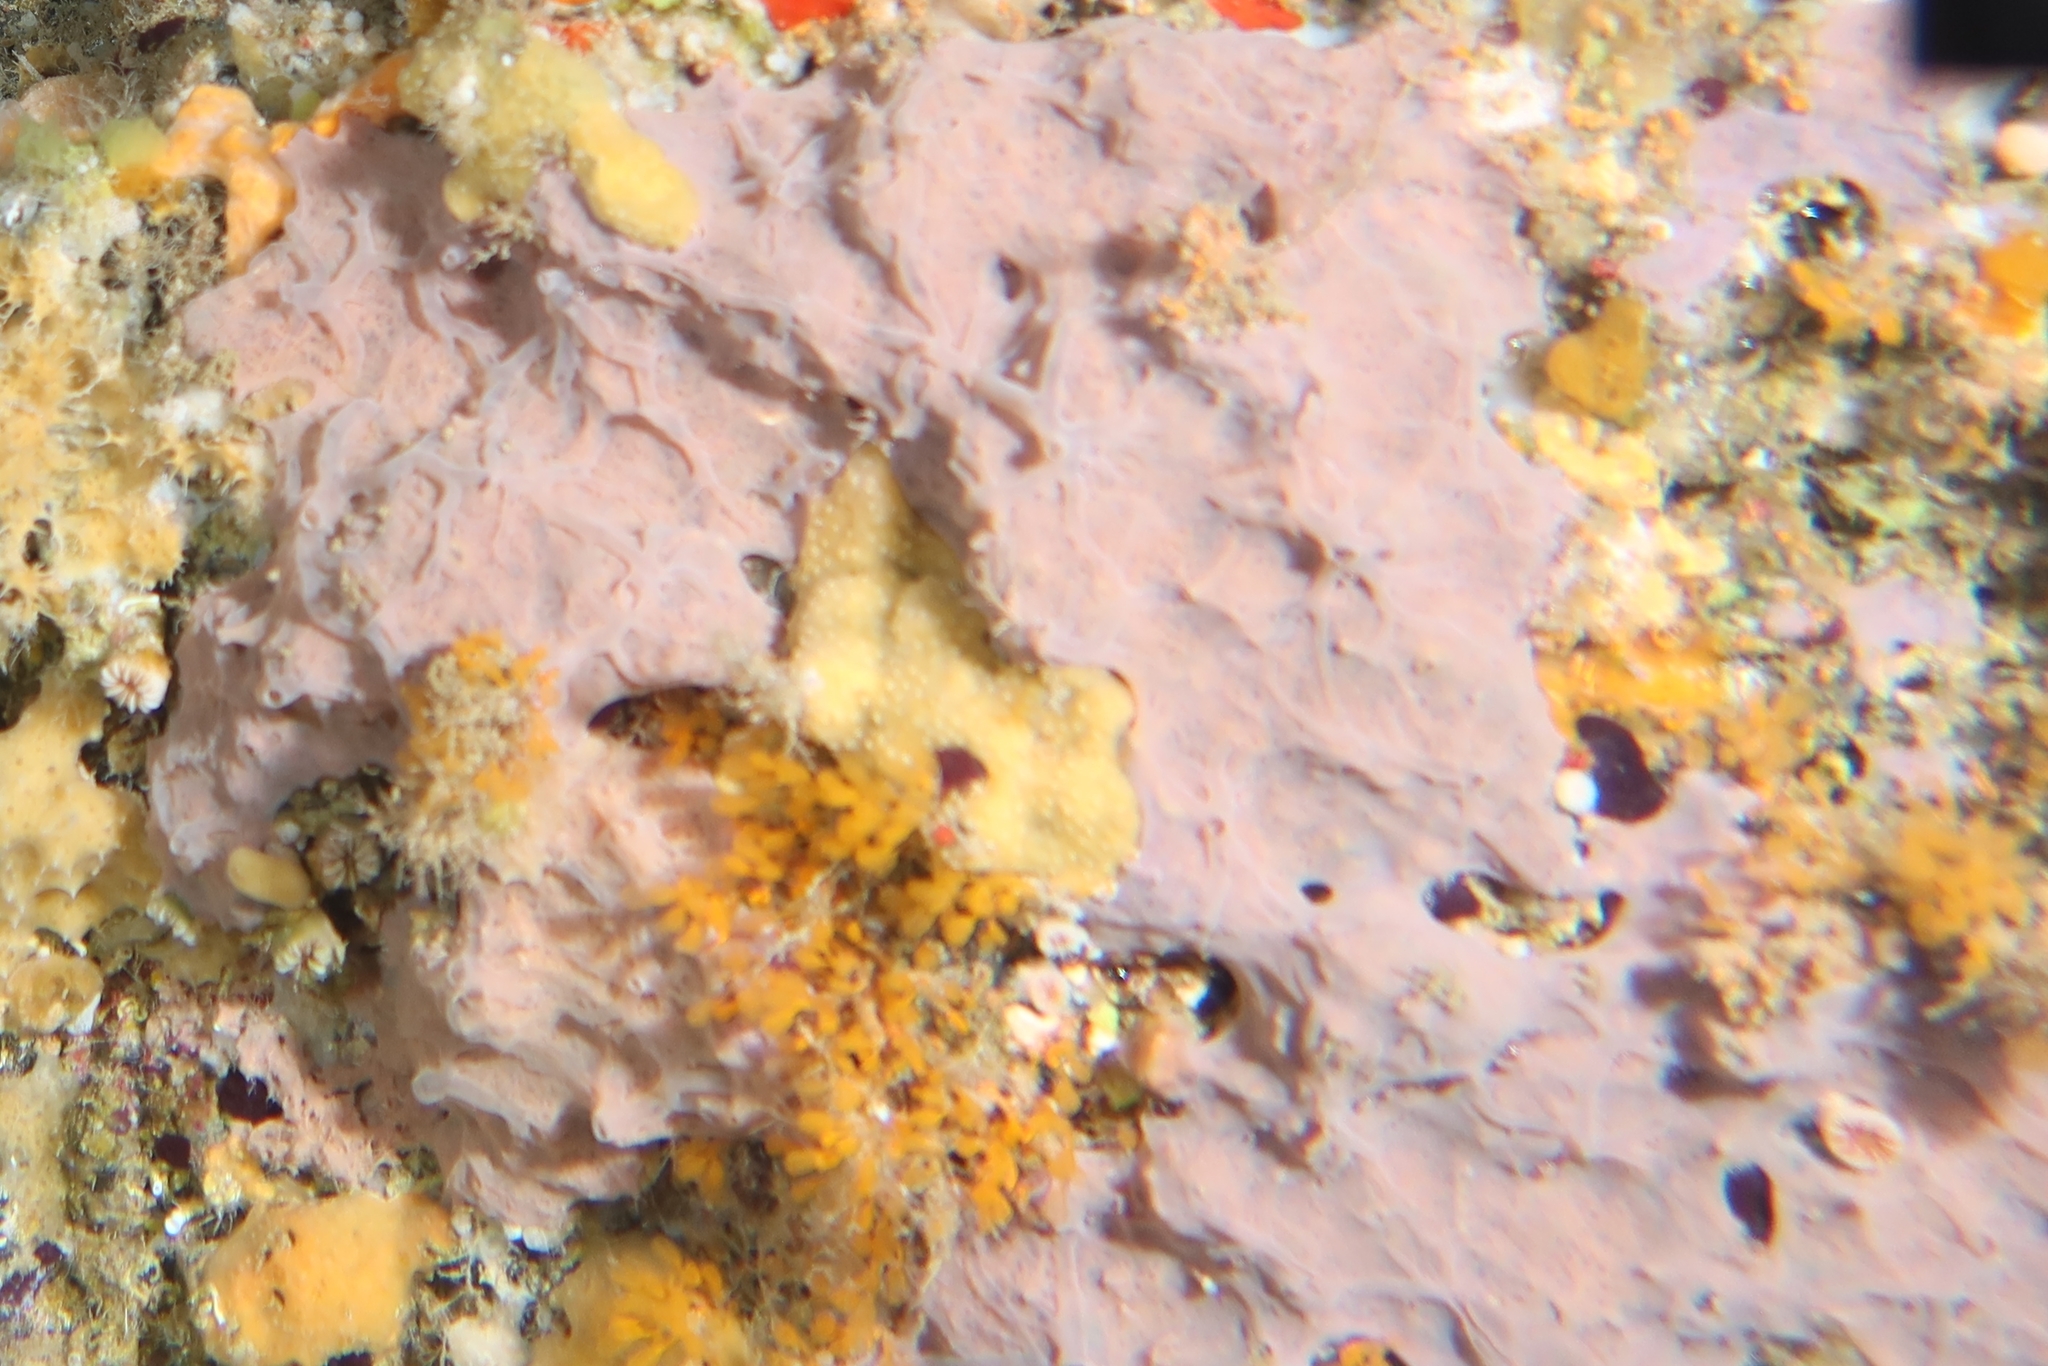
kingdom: Animalia
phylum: Porifera
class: Demospongiae
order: Verongiida
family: Ianthellidae
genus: Hexadella
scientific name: Hexadella racovitzai
